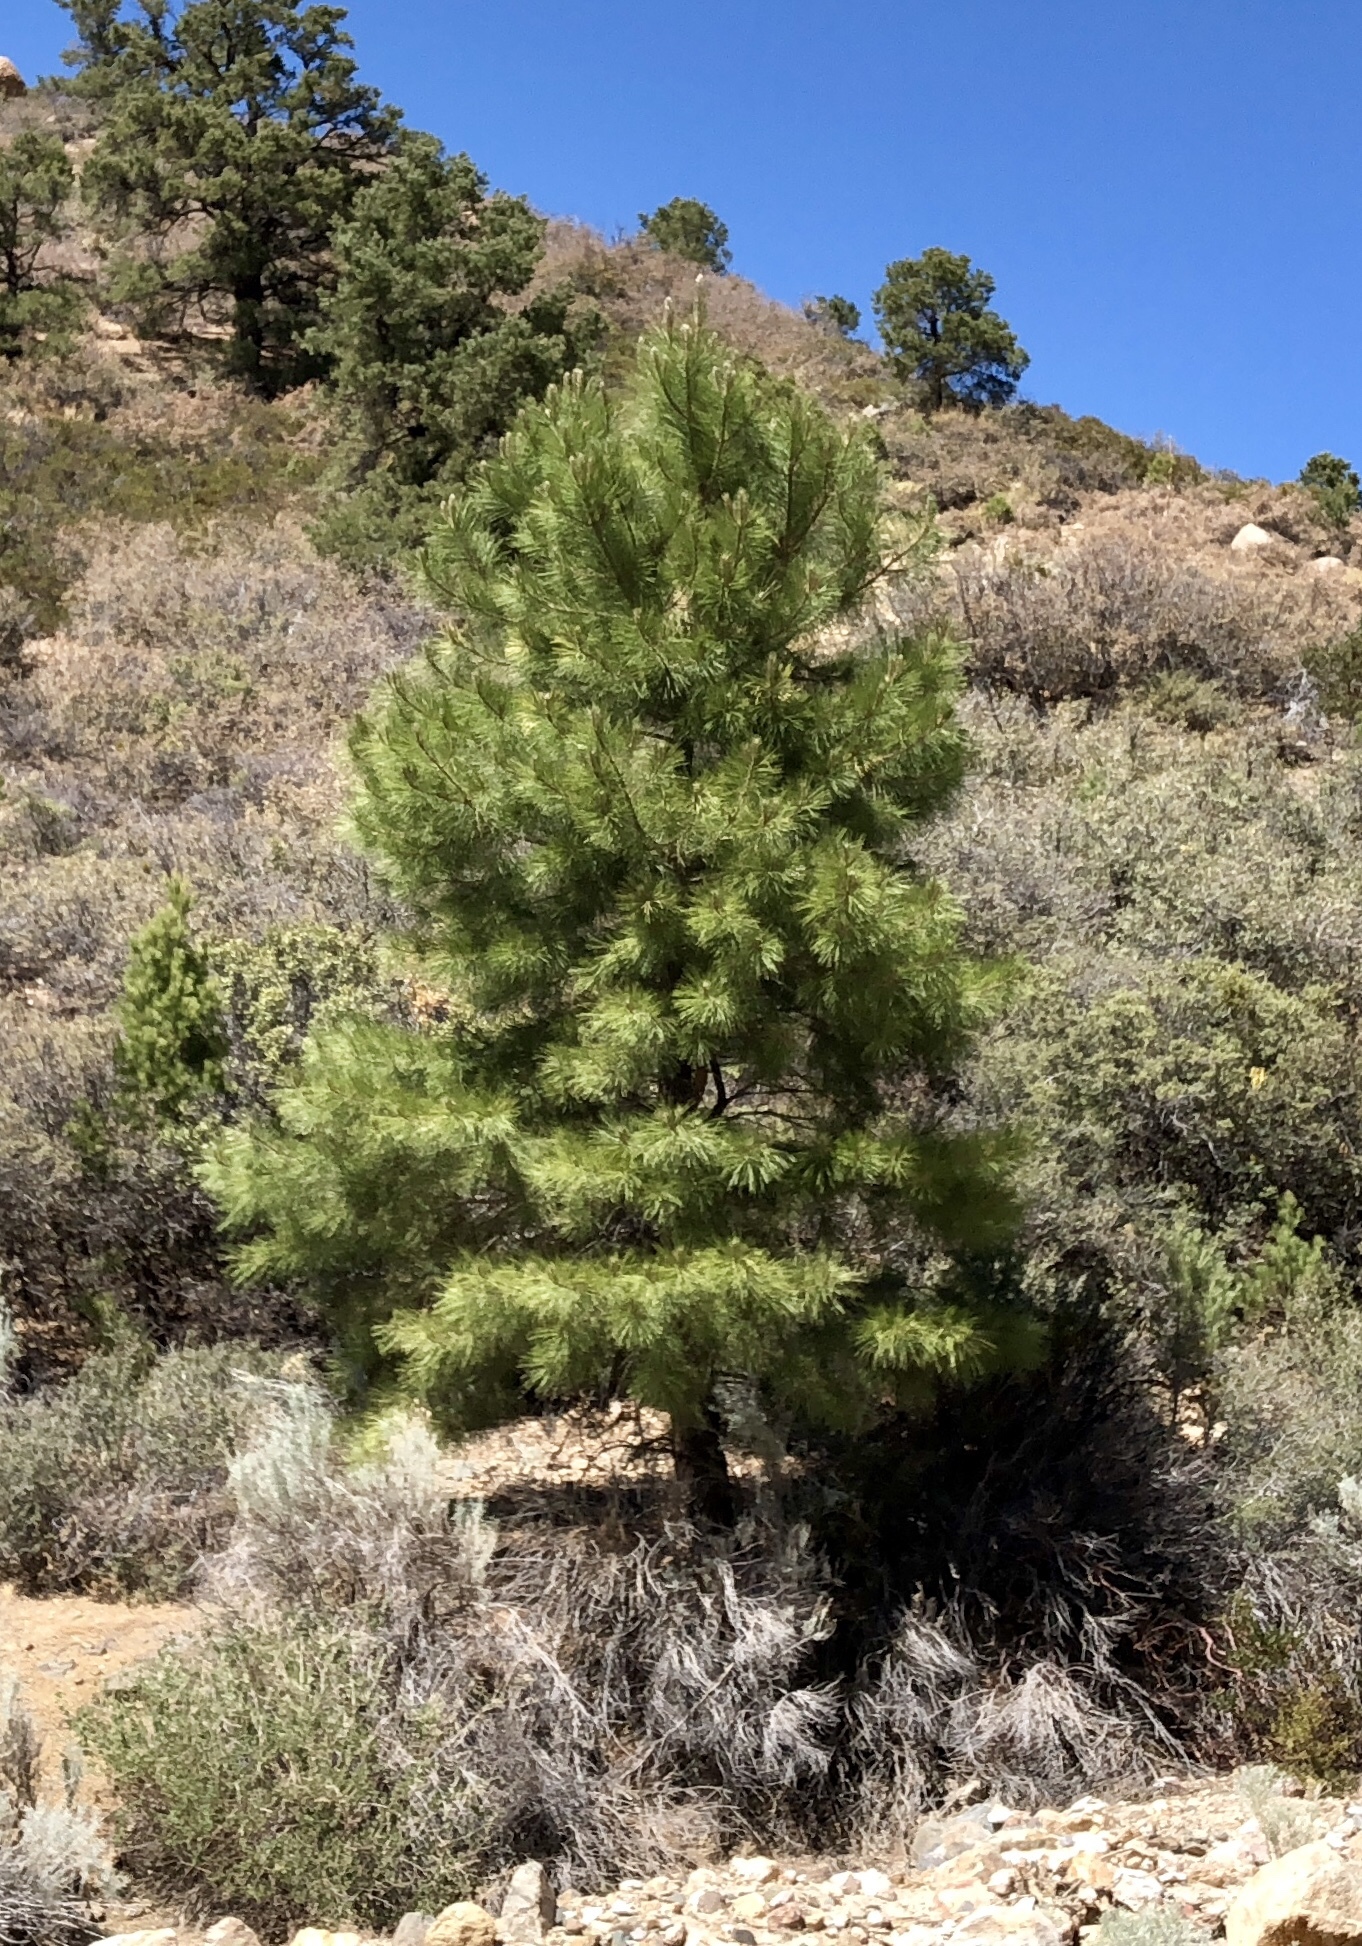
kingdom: Plantae
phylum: Tracheophyta
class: Pinopsida
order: Pinales
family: Pinaceae
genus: Pinus
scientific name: Pinus ponderosa
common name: Western yellow-pine
